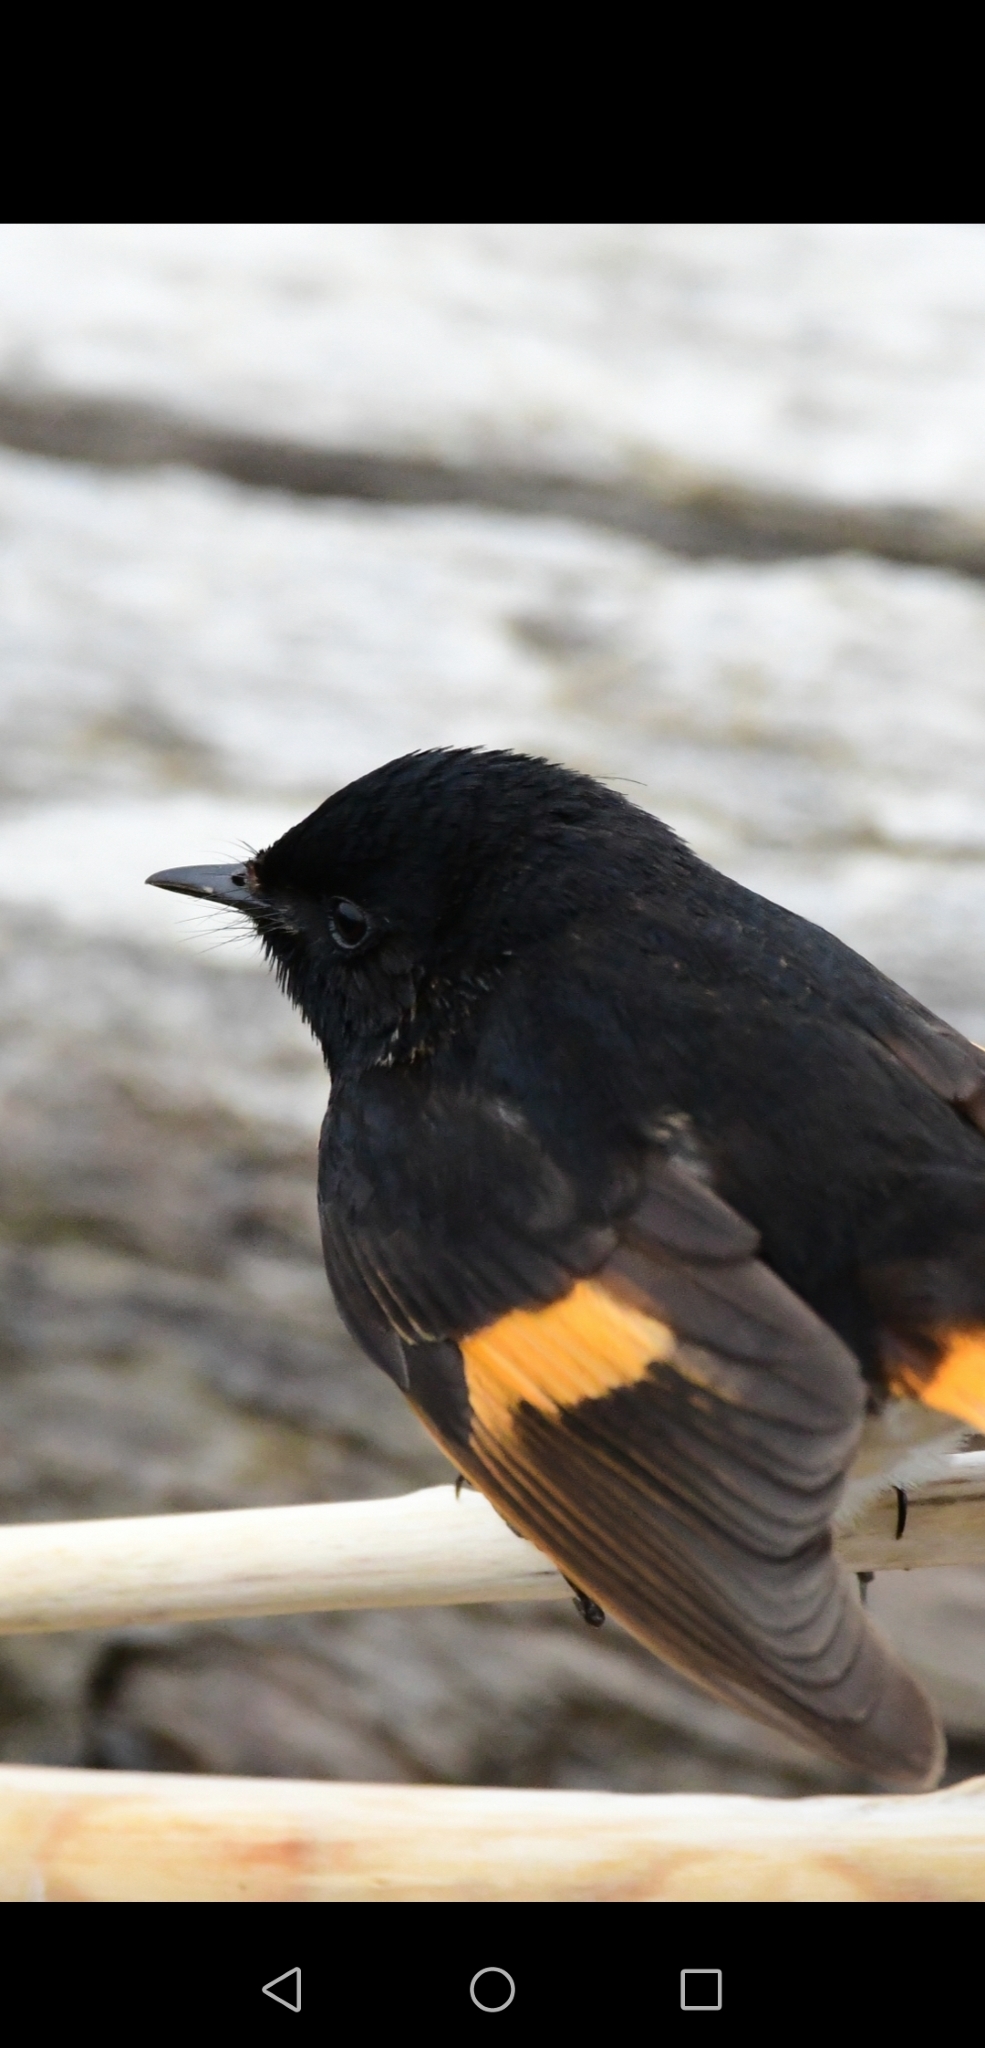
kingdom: Animalia
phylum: Chordata
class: Aves
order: Passeriformes
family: Parulidae
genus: Setophaga
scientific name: Setophaga ruticilla
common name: American redstart
